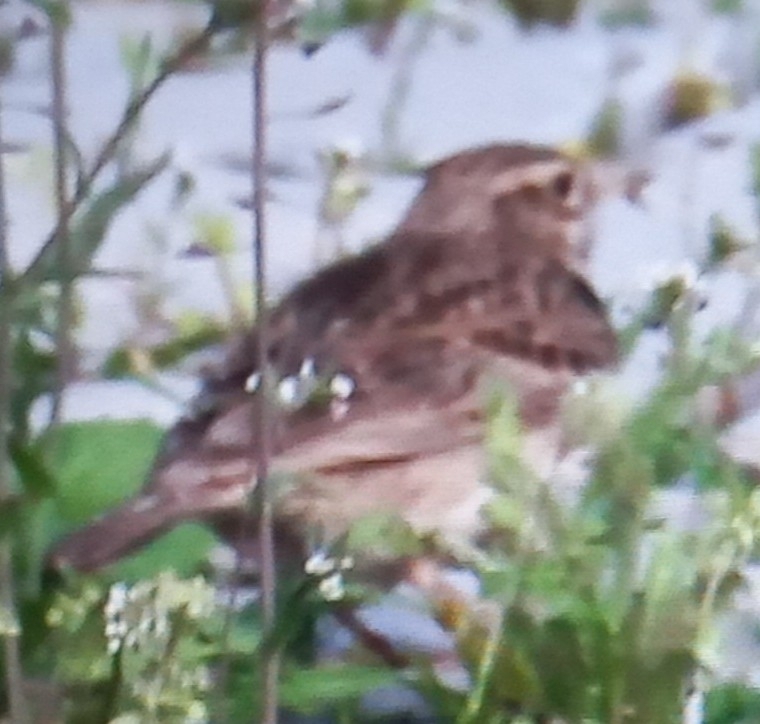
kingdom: Animalia
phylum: Chordata
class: Aves
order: Passeriformes
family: Alaudidae
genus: Lullula
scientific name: Lullula arborea
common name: Woodlark
